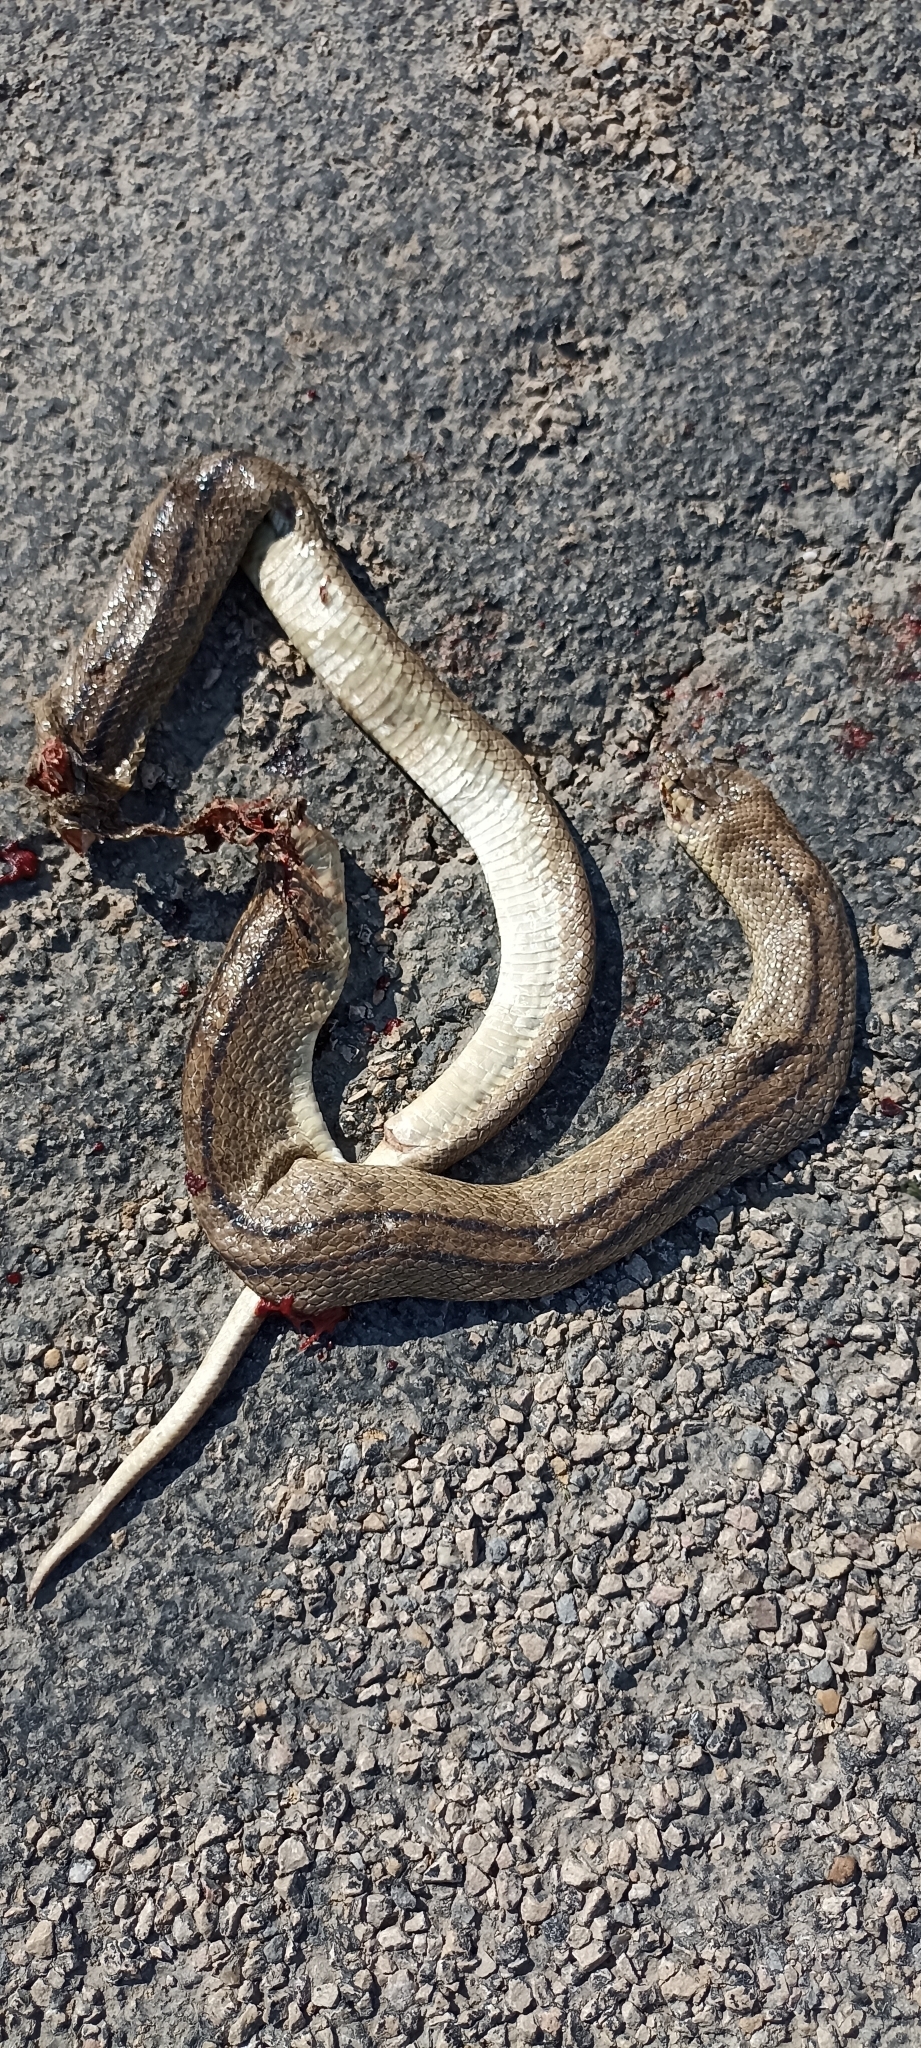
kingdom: Animalia
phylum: Chordata
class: Squamata
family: Colubridae
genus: Zamenis
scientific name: Zamenis scalaris
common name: Ladder snakes
